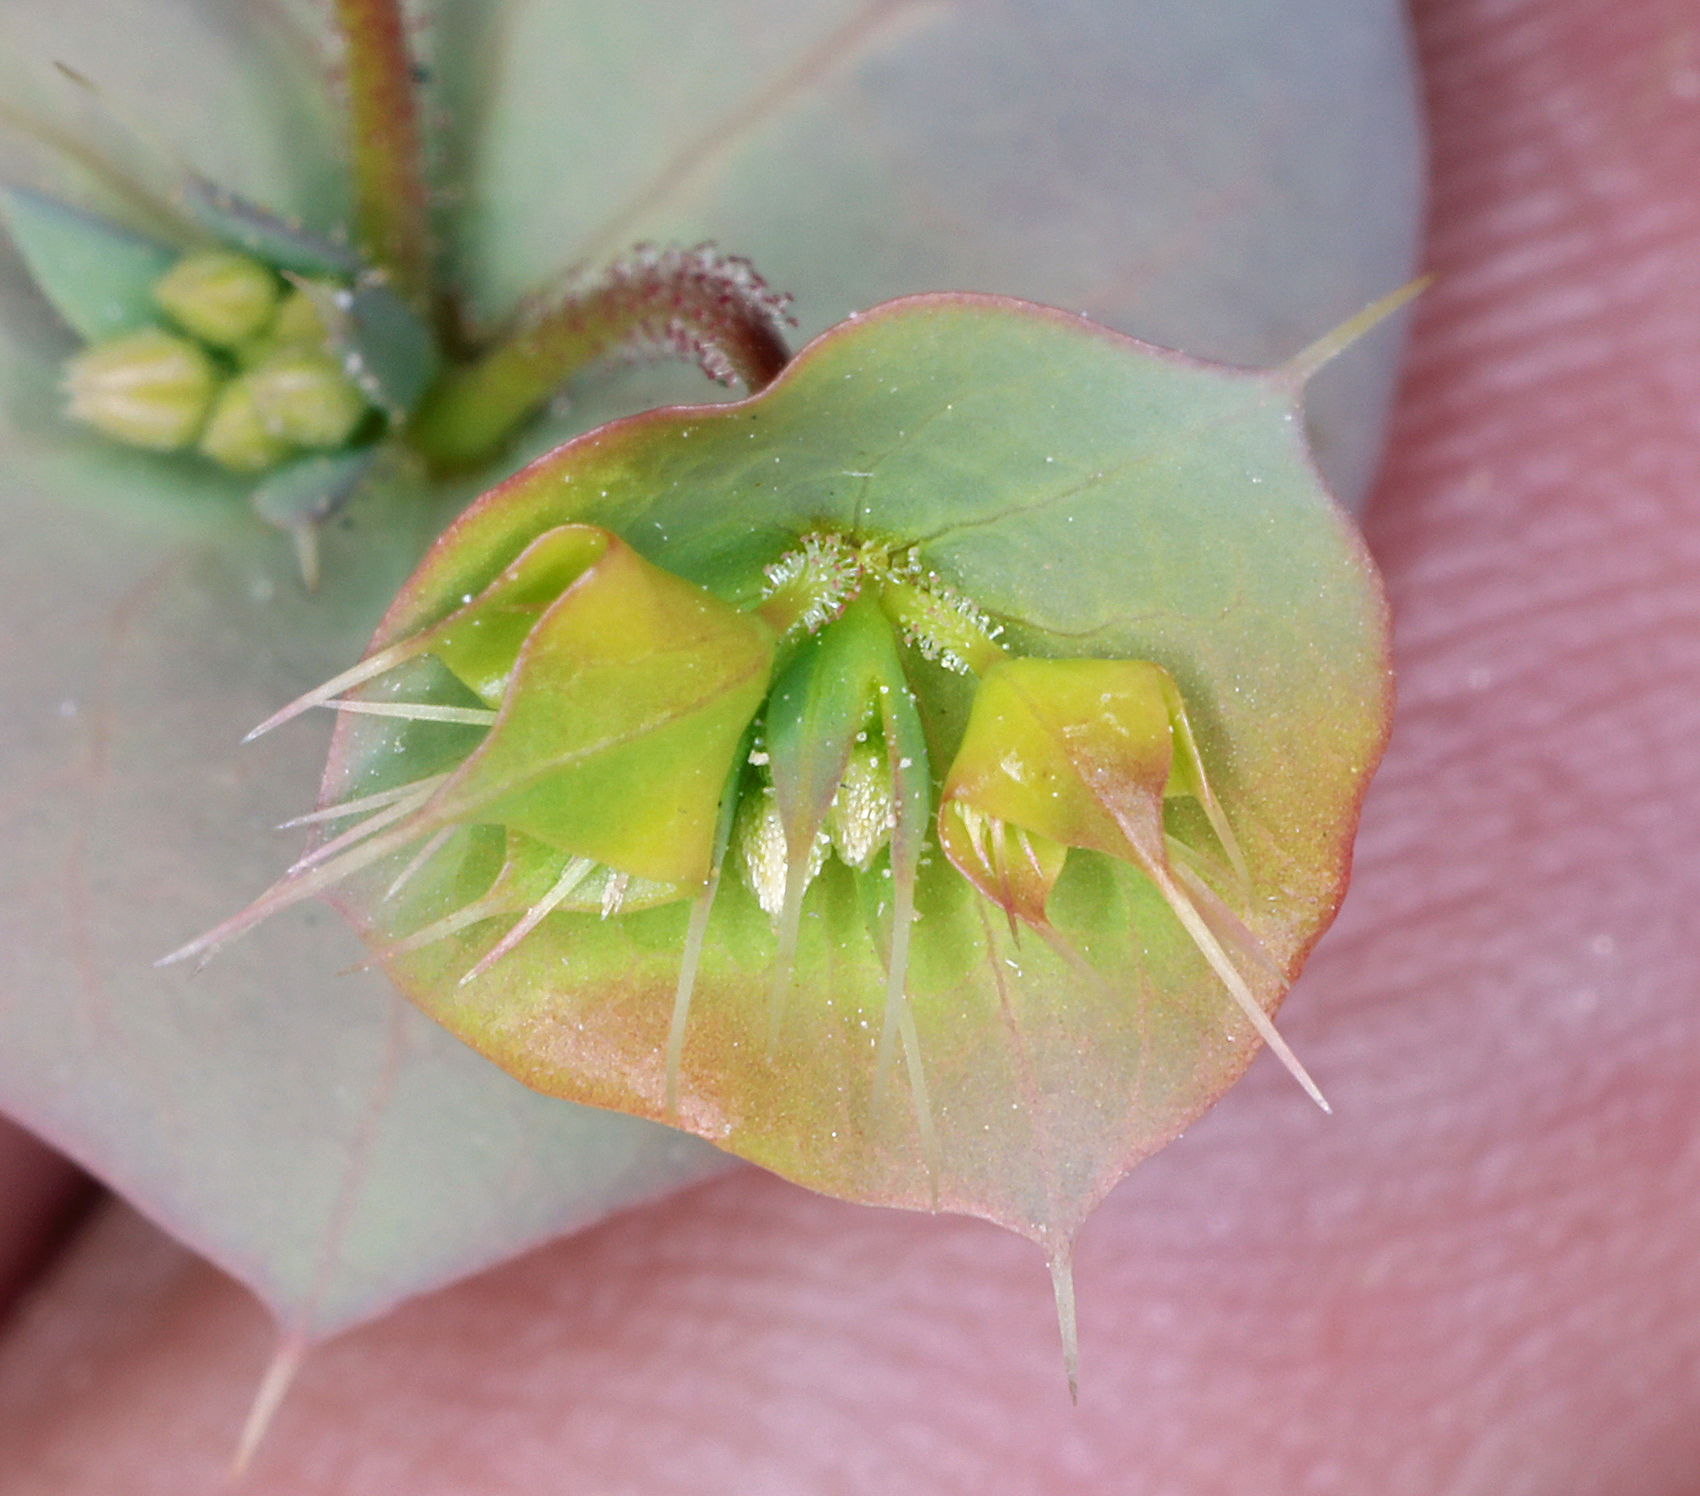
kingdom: Plantae
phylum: Tracheophyta
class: Magnoliopsida
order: Caryophyllales
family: Polygonaceae
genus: Oxytheca
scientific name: Oxytheca perfoliata
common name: Round-leaf puncturebract
